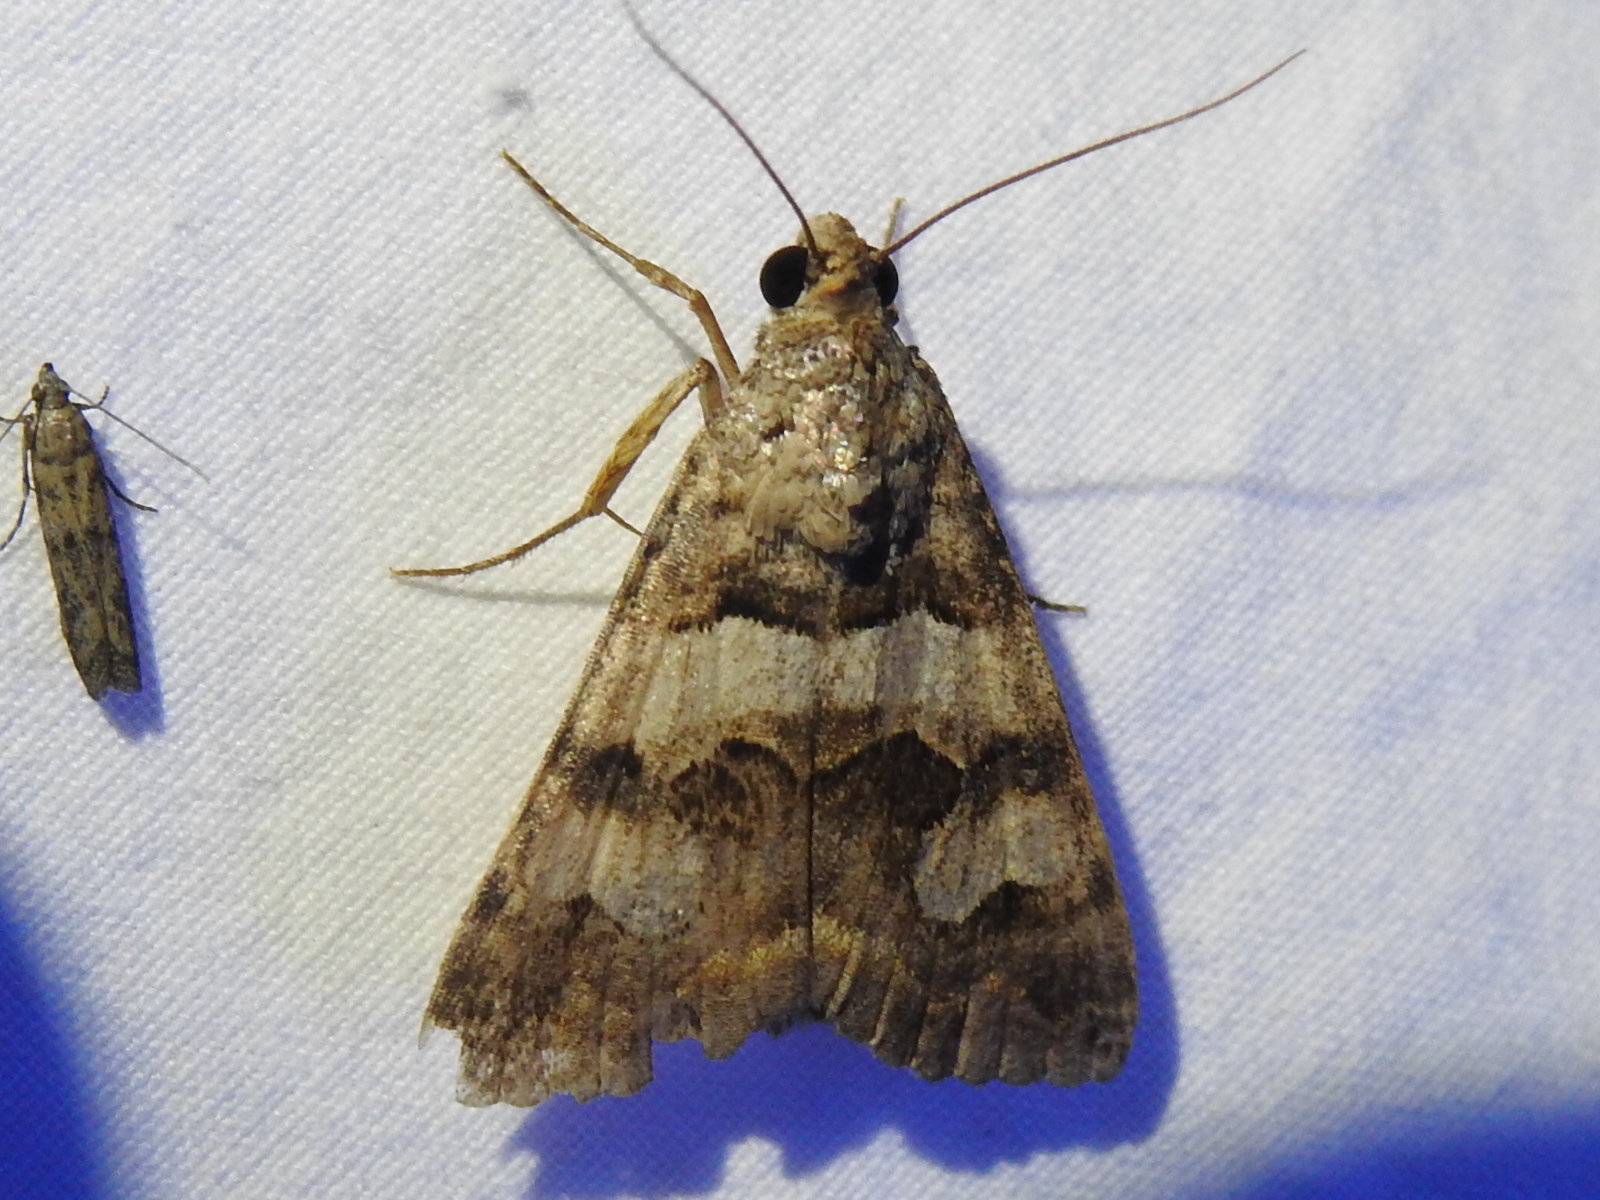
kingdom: Animalia
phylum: Arthropoda
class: Insecta
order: Lepidoptera
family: Erebidae
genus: Bulia
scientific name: Bulia deducta
